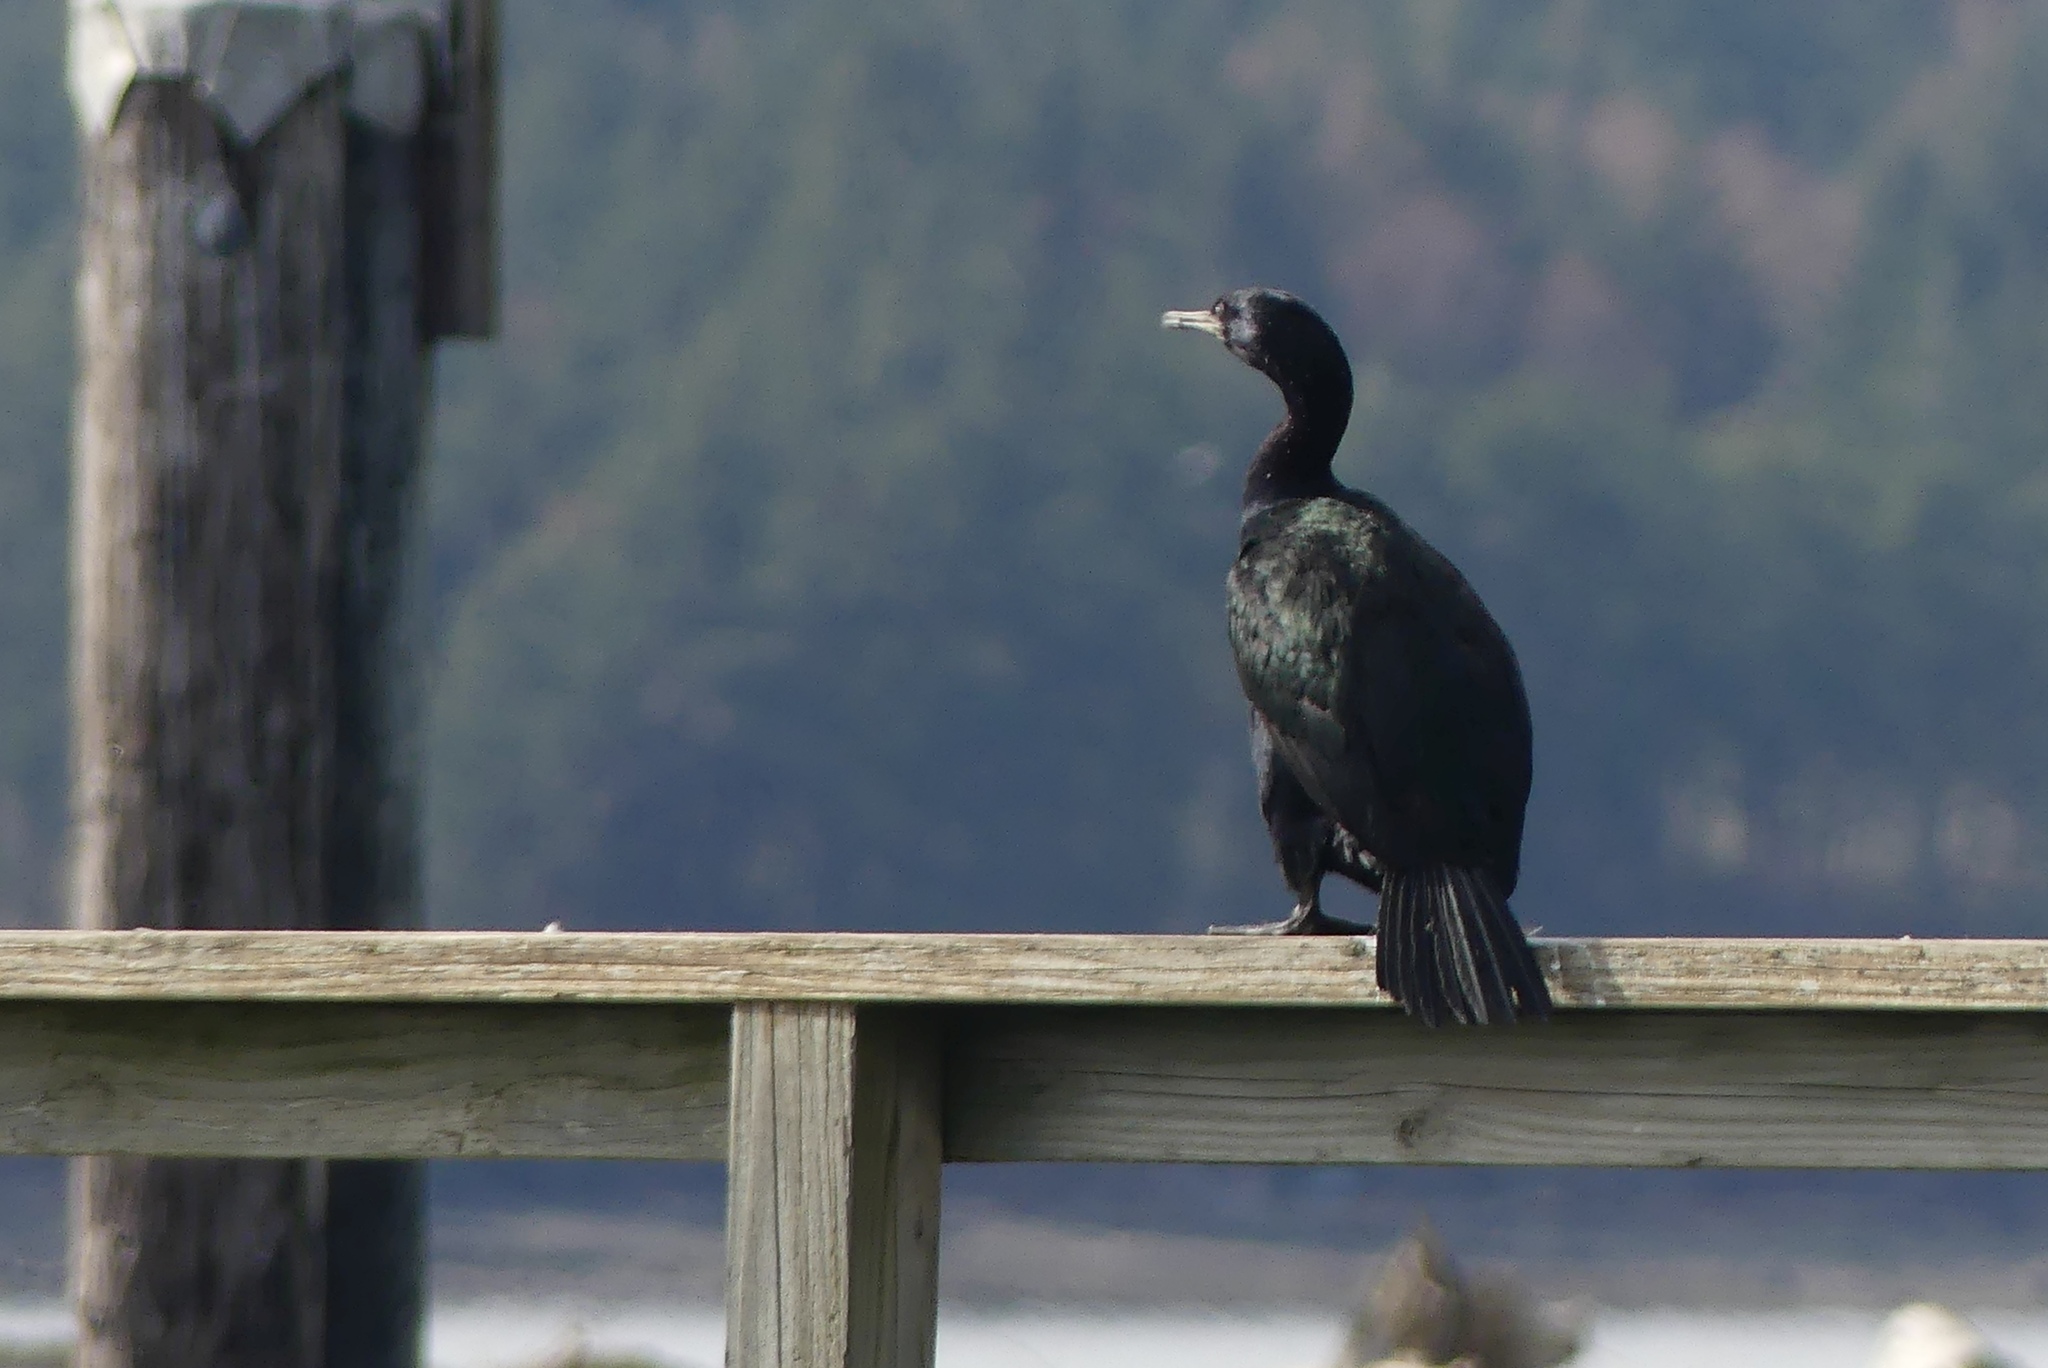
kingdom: Animalia
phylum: Chordata
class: Aves
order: Suliformes
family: Phalacrocoracidae
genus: Phalacrocorax
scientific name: Phalacrocorax pelagicus
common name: Pelagic cormorant
